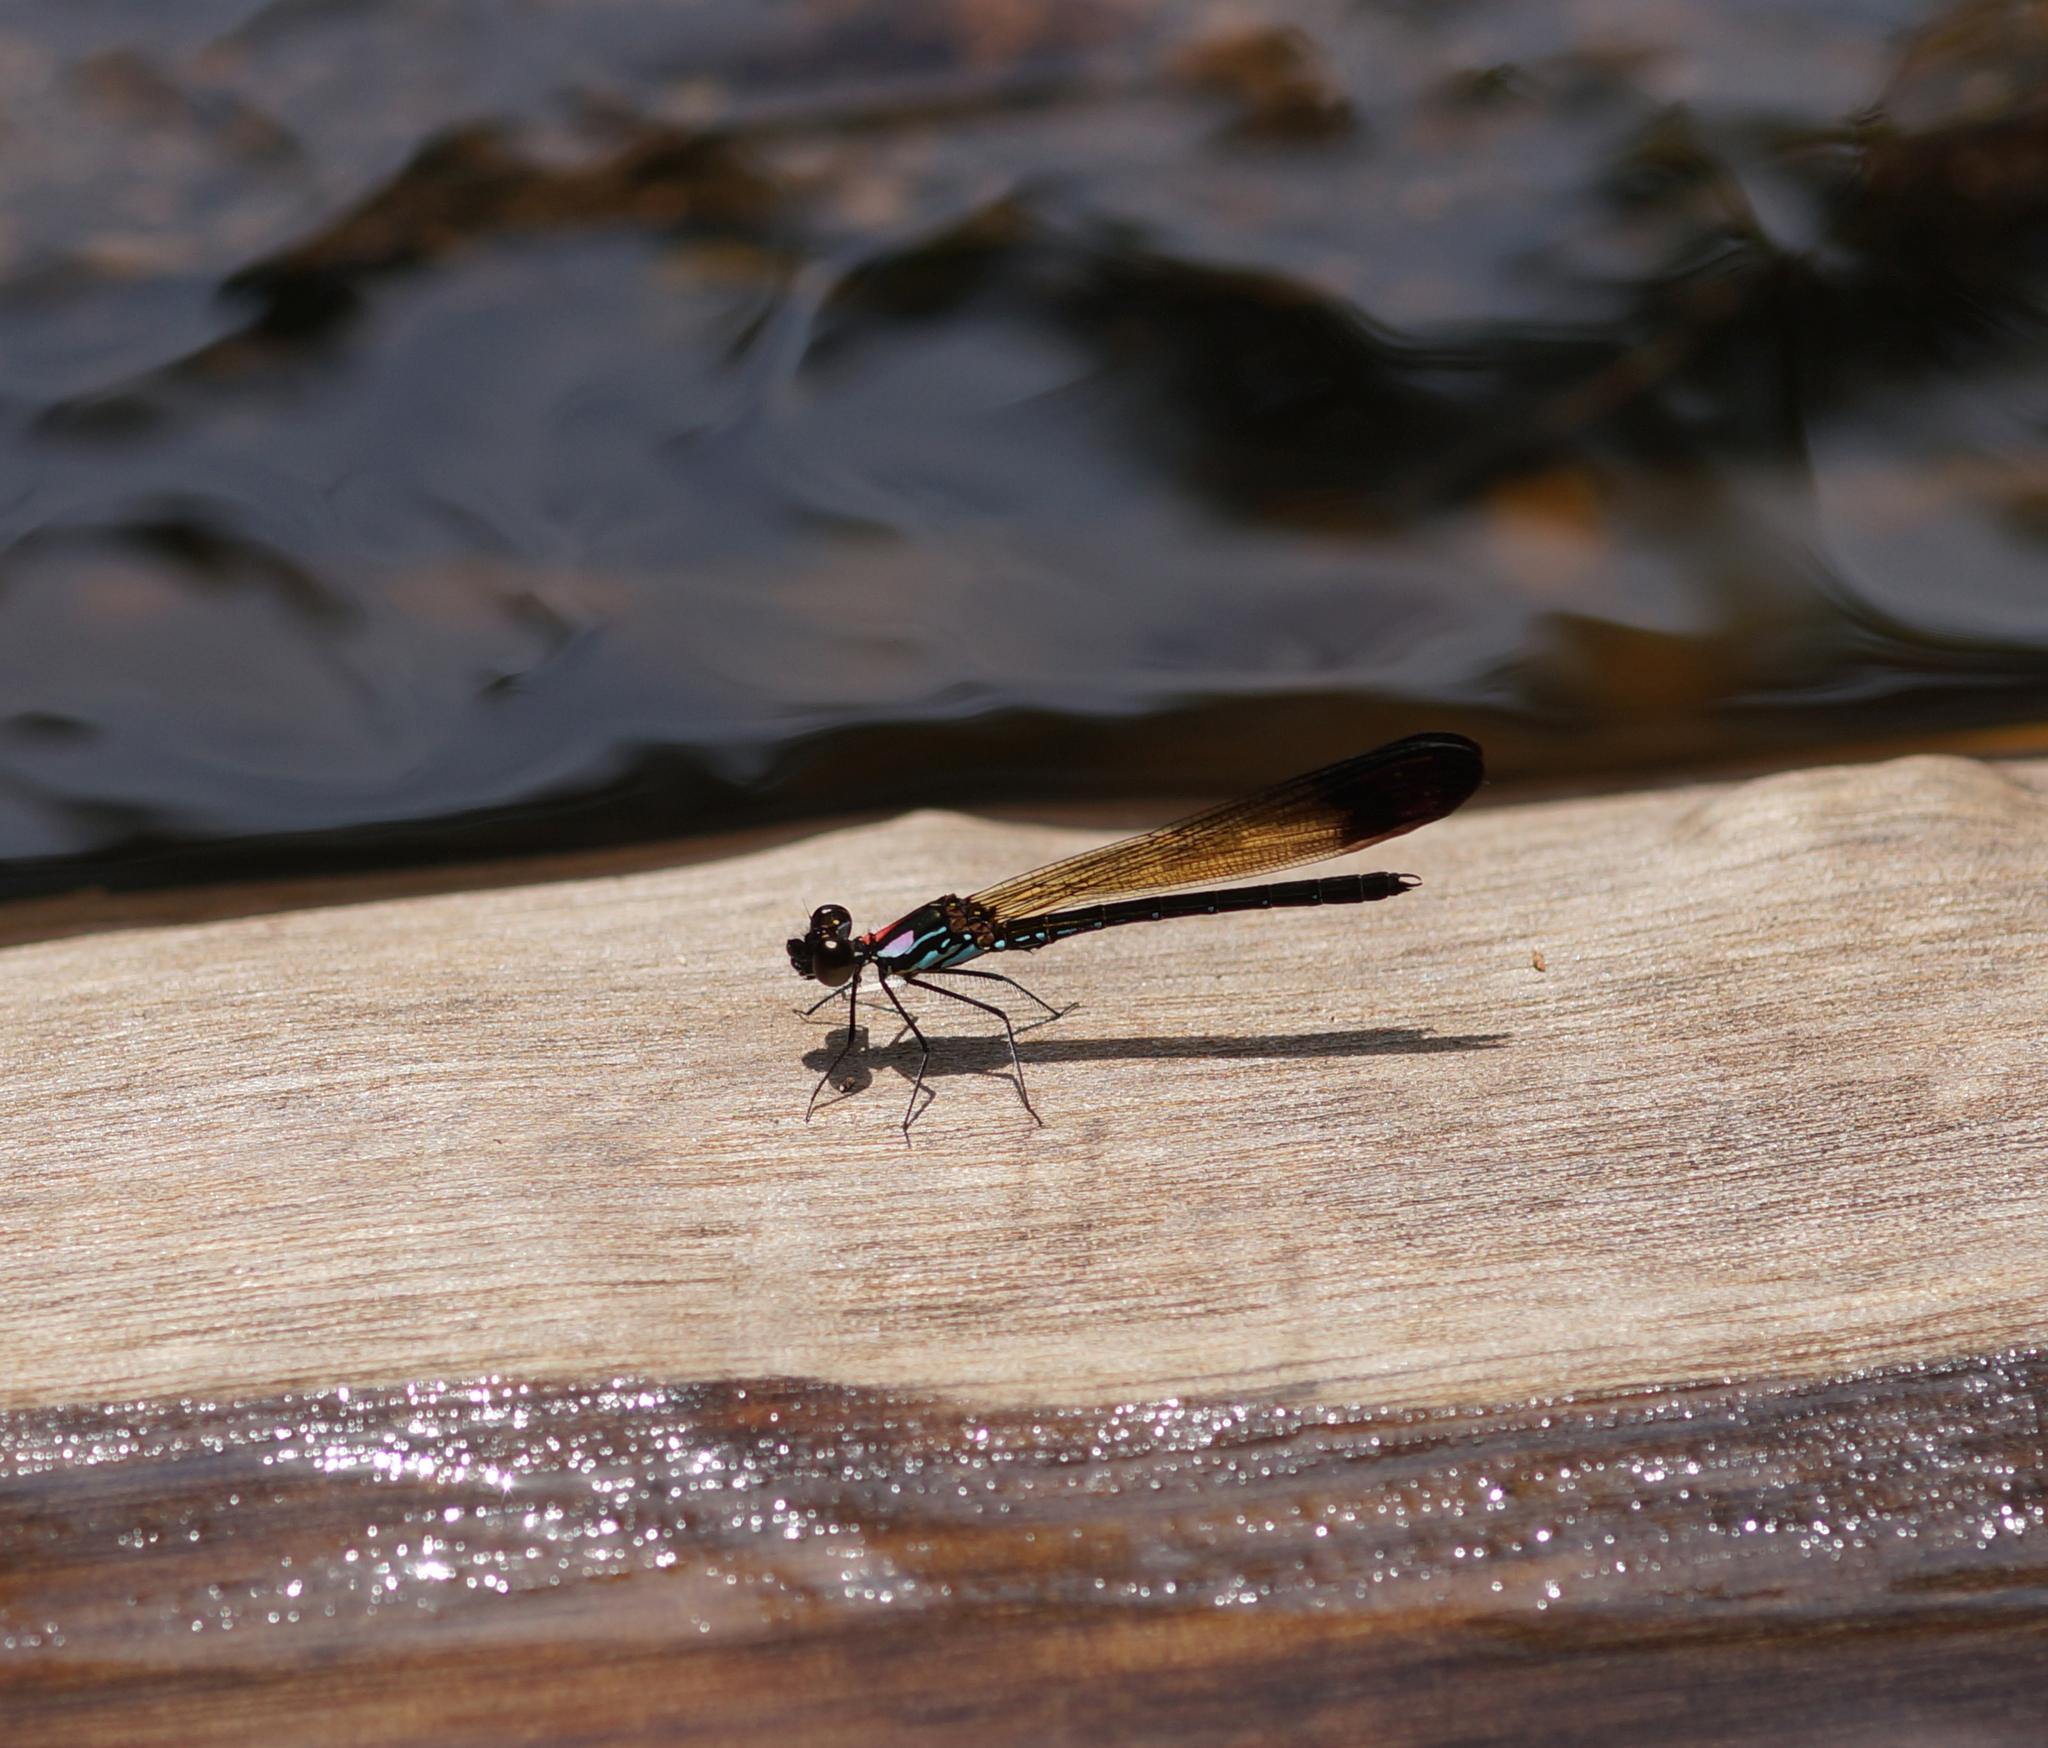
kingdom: Animalia
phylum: Arthropoda
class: Insecta
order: Odonata
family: Chlorocyphidae
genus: Heliocypha
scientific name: Heliocypha biforata
